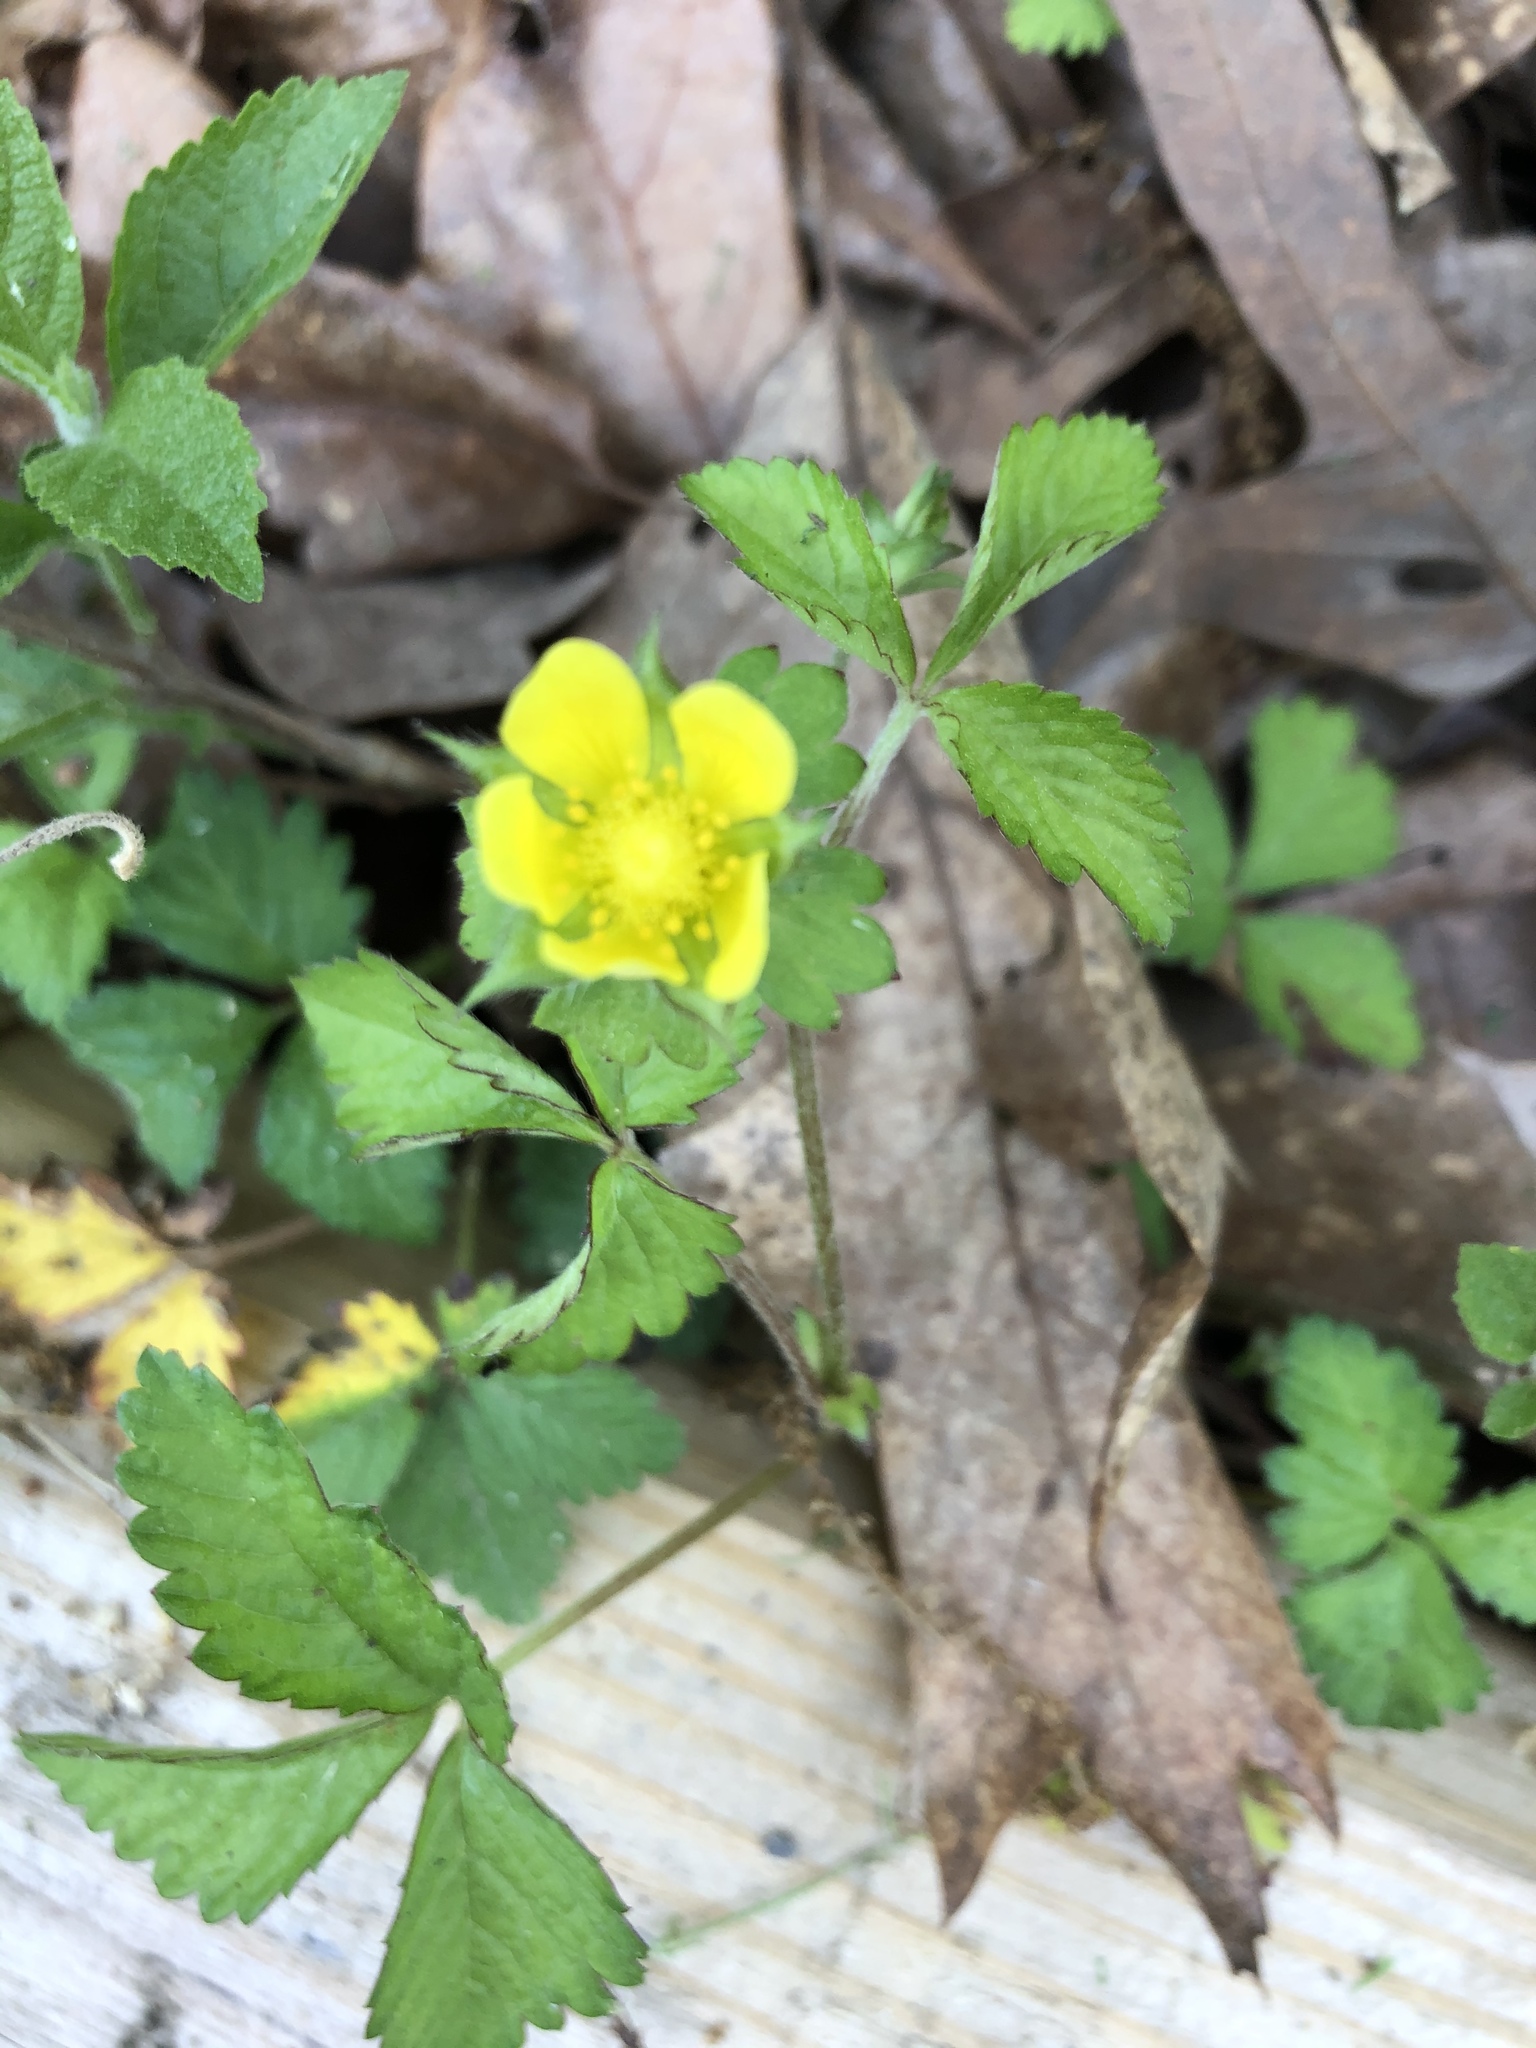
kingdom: Plantae
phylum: Tracheophyta
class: Magnoliopsida
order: Rosales
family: Rosaceae
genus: Potentilla
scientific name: Potentilla indica
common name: Yellow-flowered strawberry
